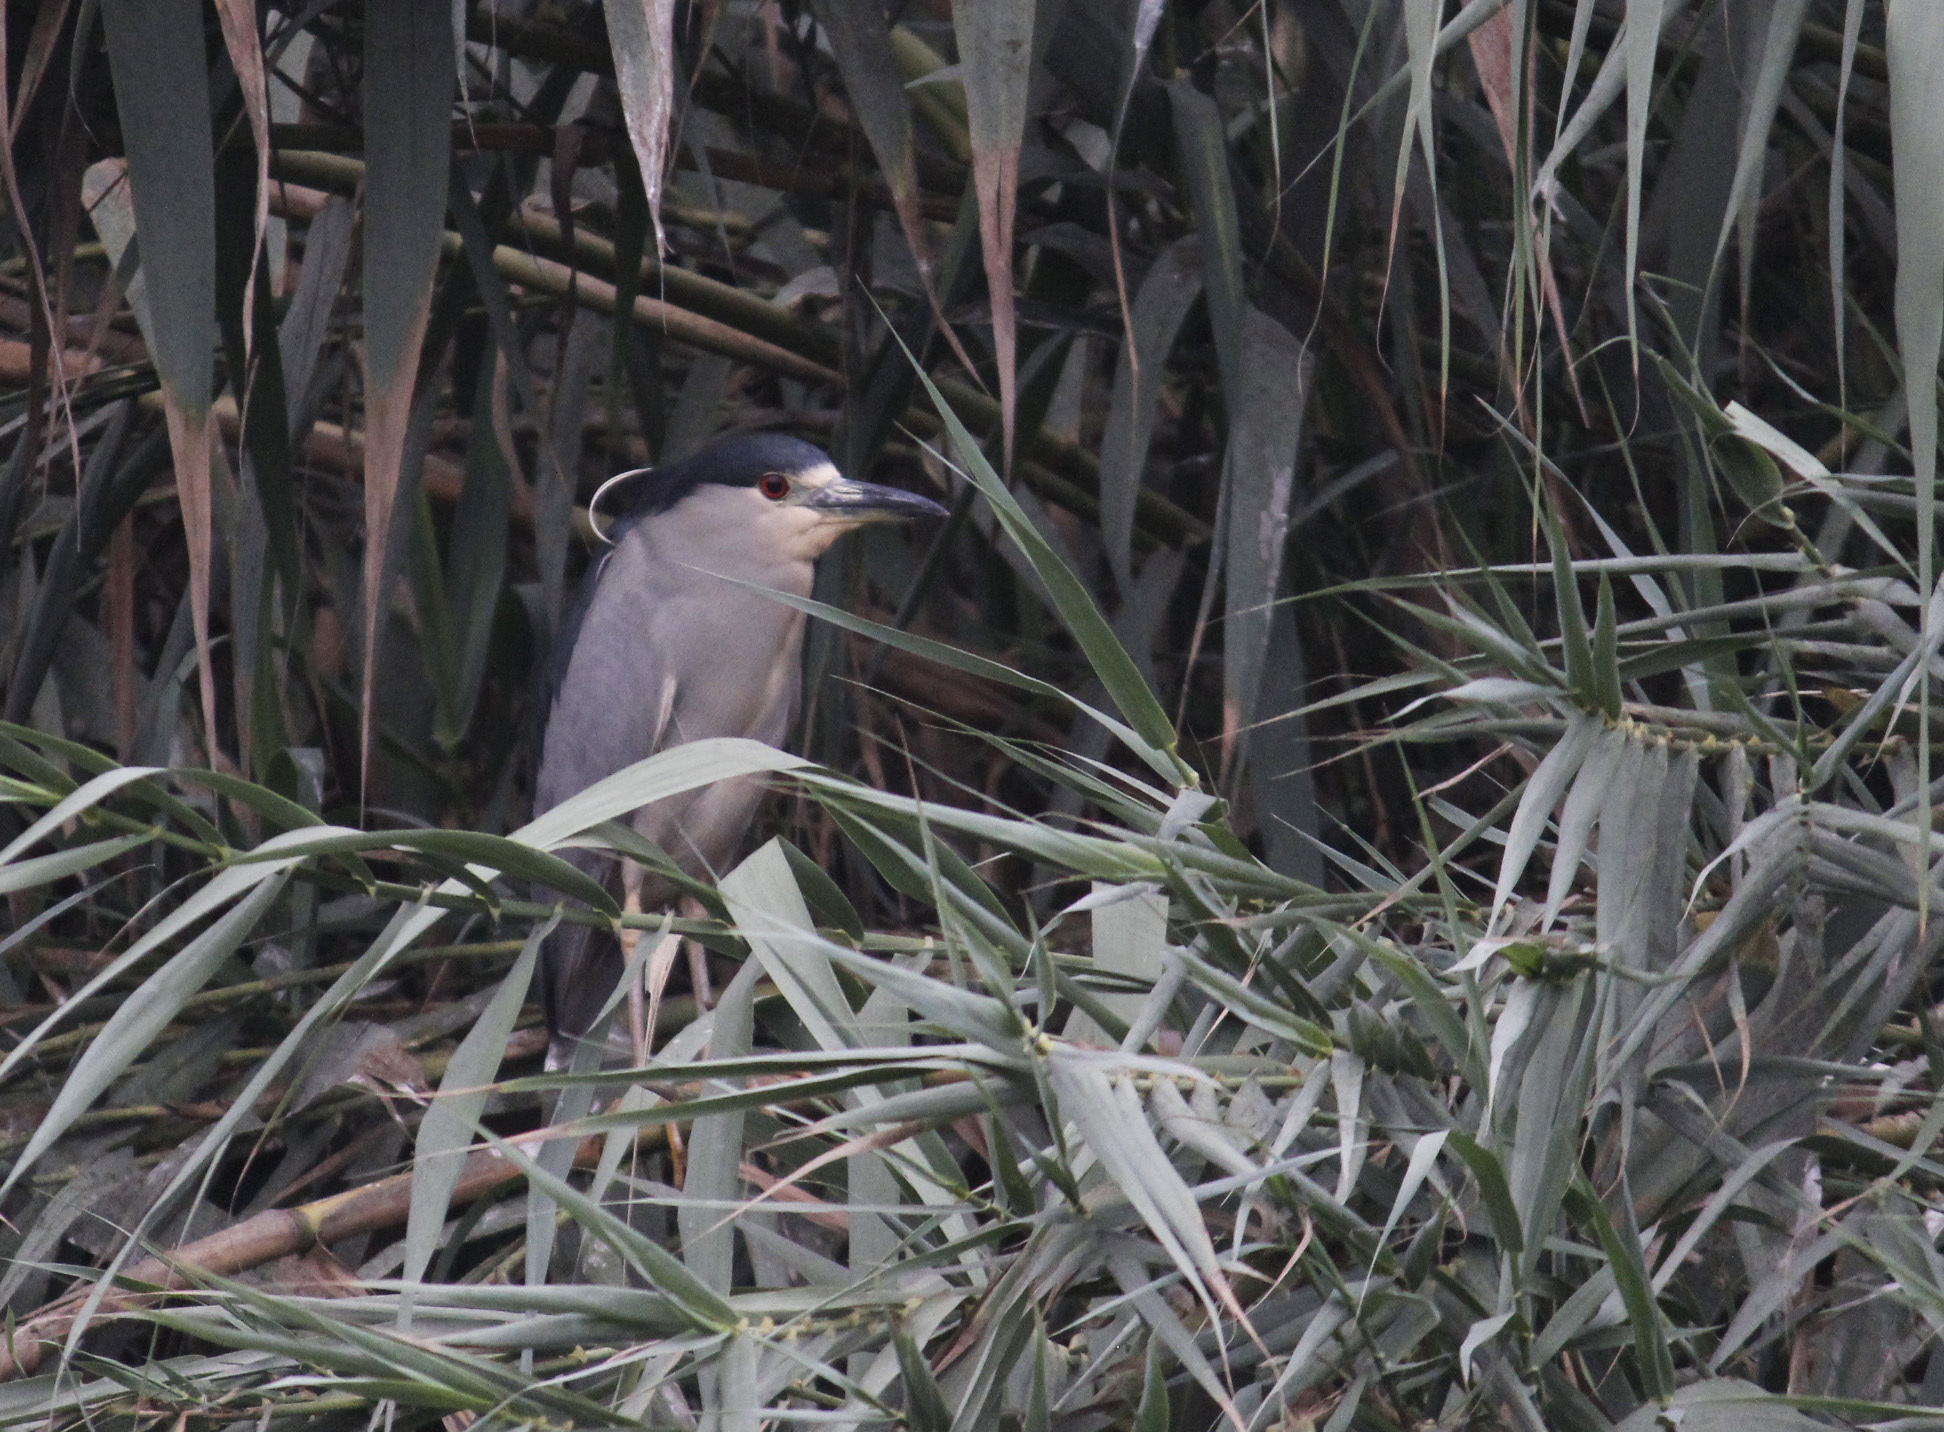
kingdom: Animalia
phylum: Chordata
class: Aves
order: Pelecaniformes
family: Ardeidae
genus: Nycticorax
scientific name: Nycticorax nycticorax
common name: Black-crowned night heron
